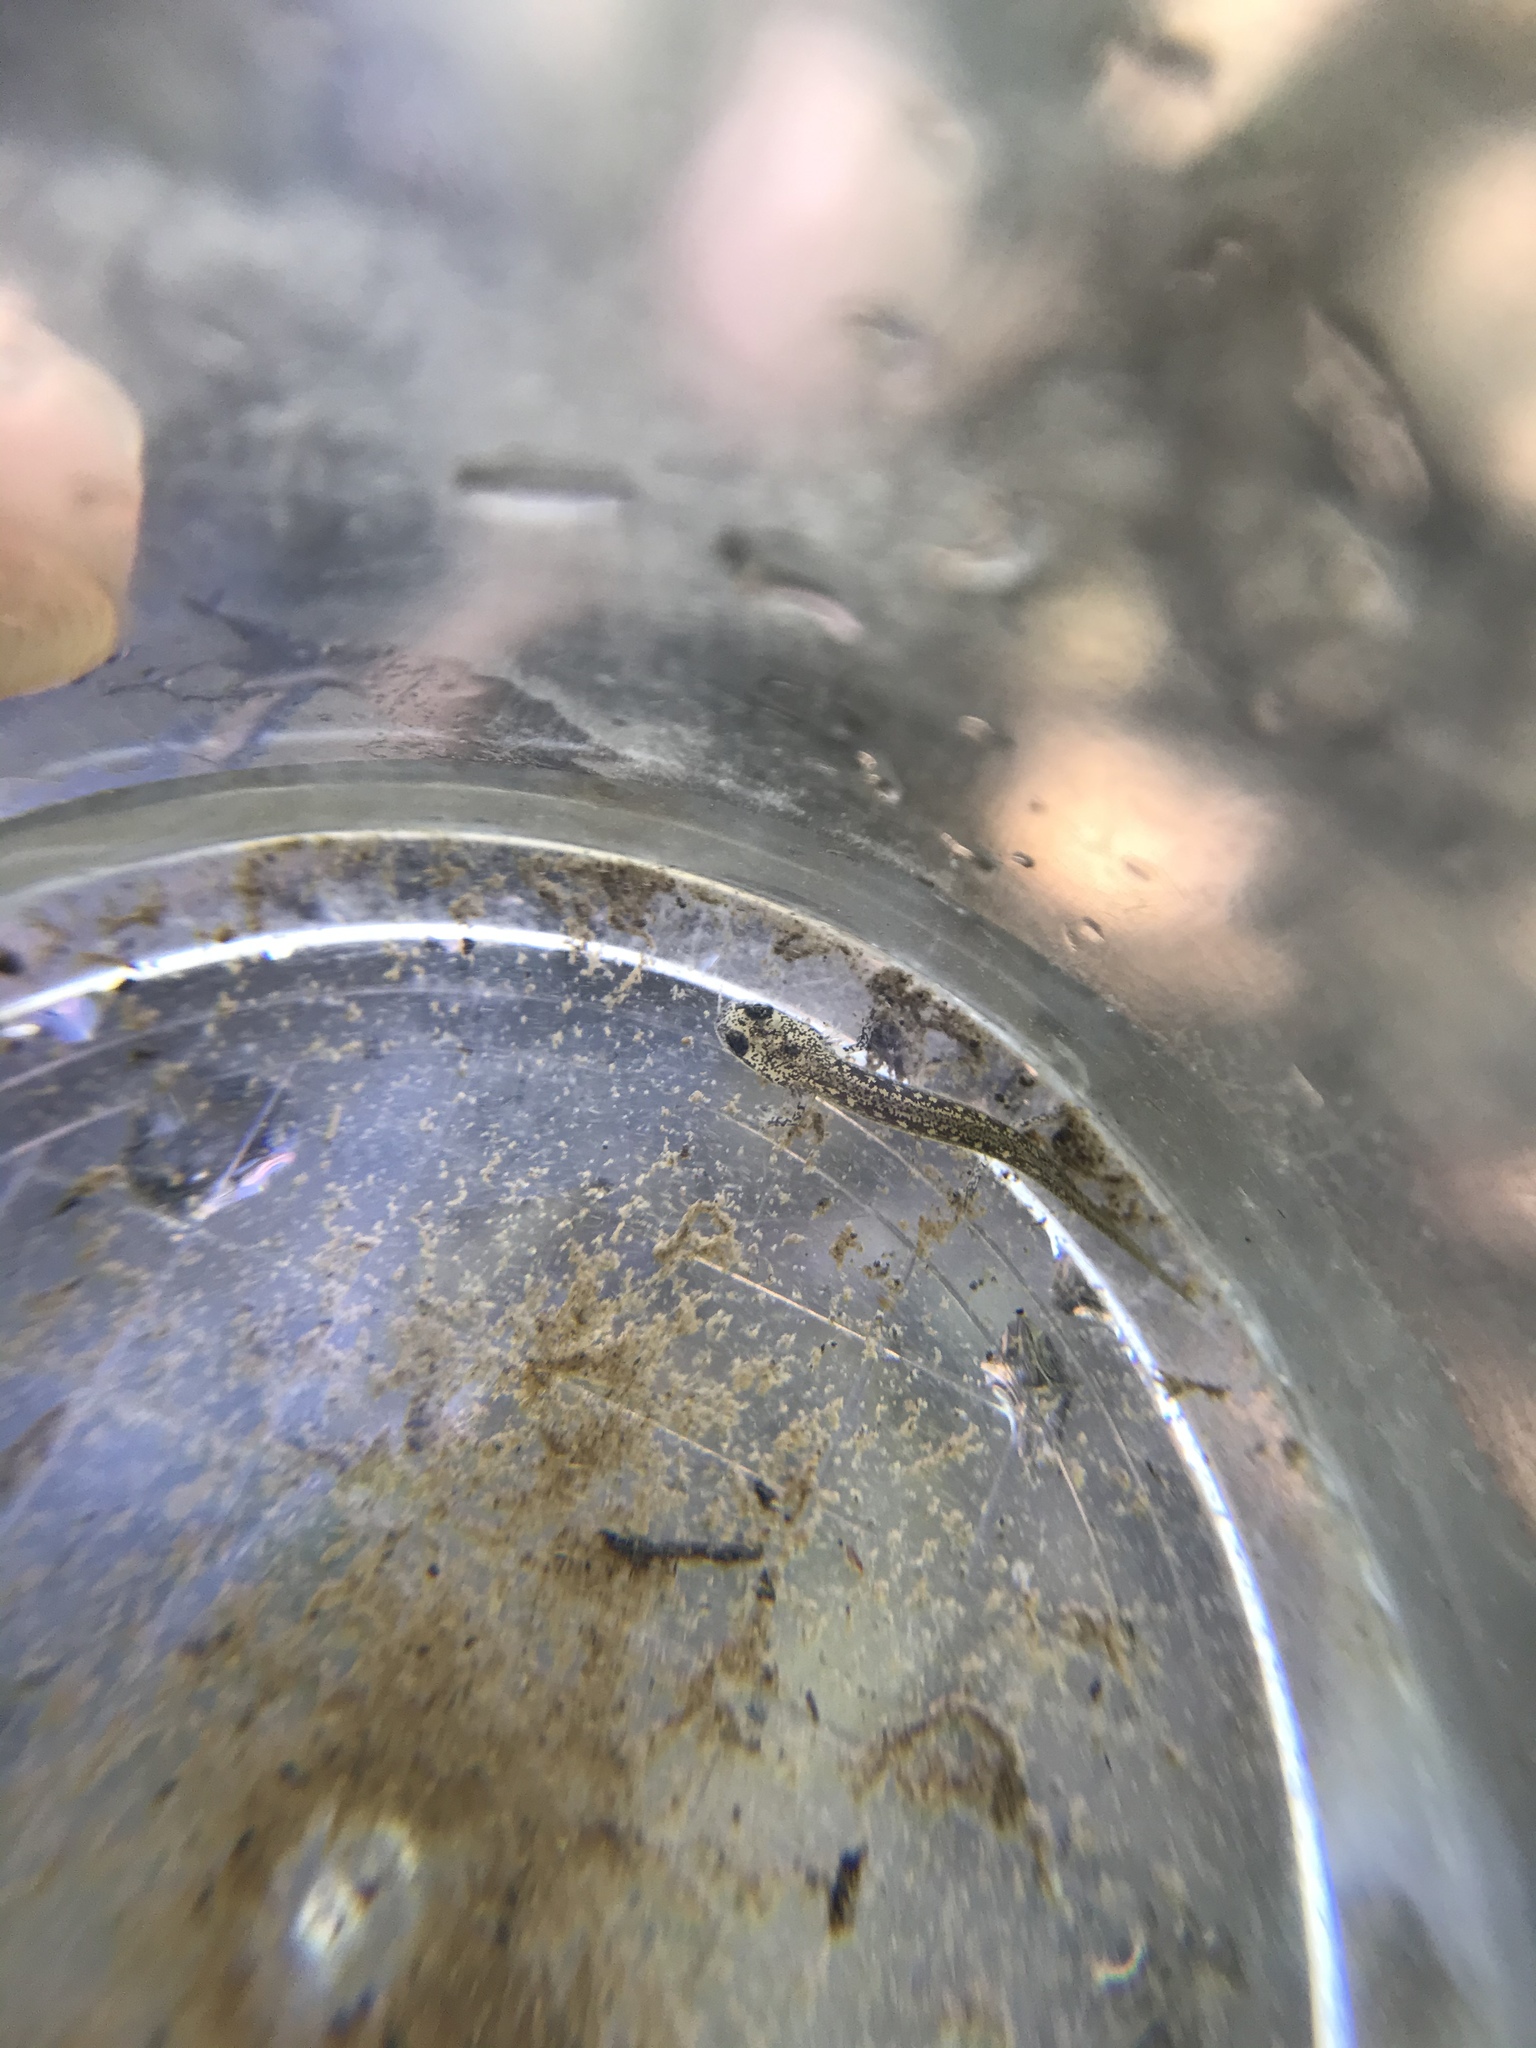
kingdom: Animalia
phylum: Chordata
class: Amphibia
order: Caudata
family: Plethodontidae
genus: Eurycea
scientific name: Eurycea bislineata
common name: Northern two-lined salamander
